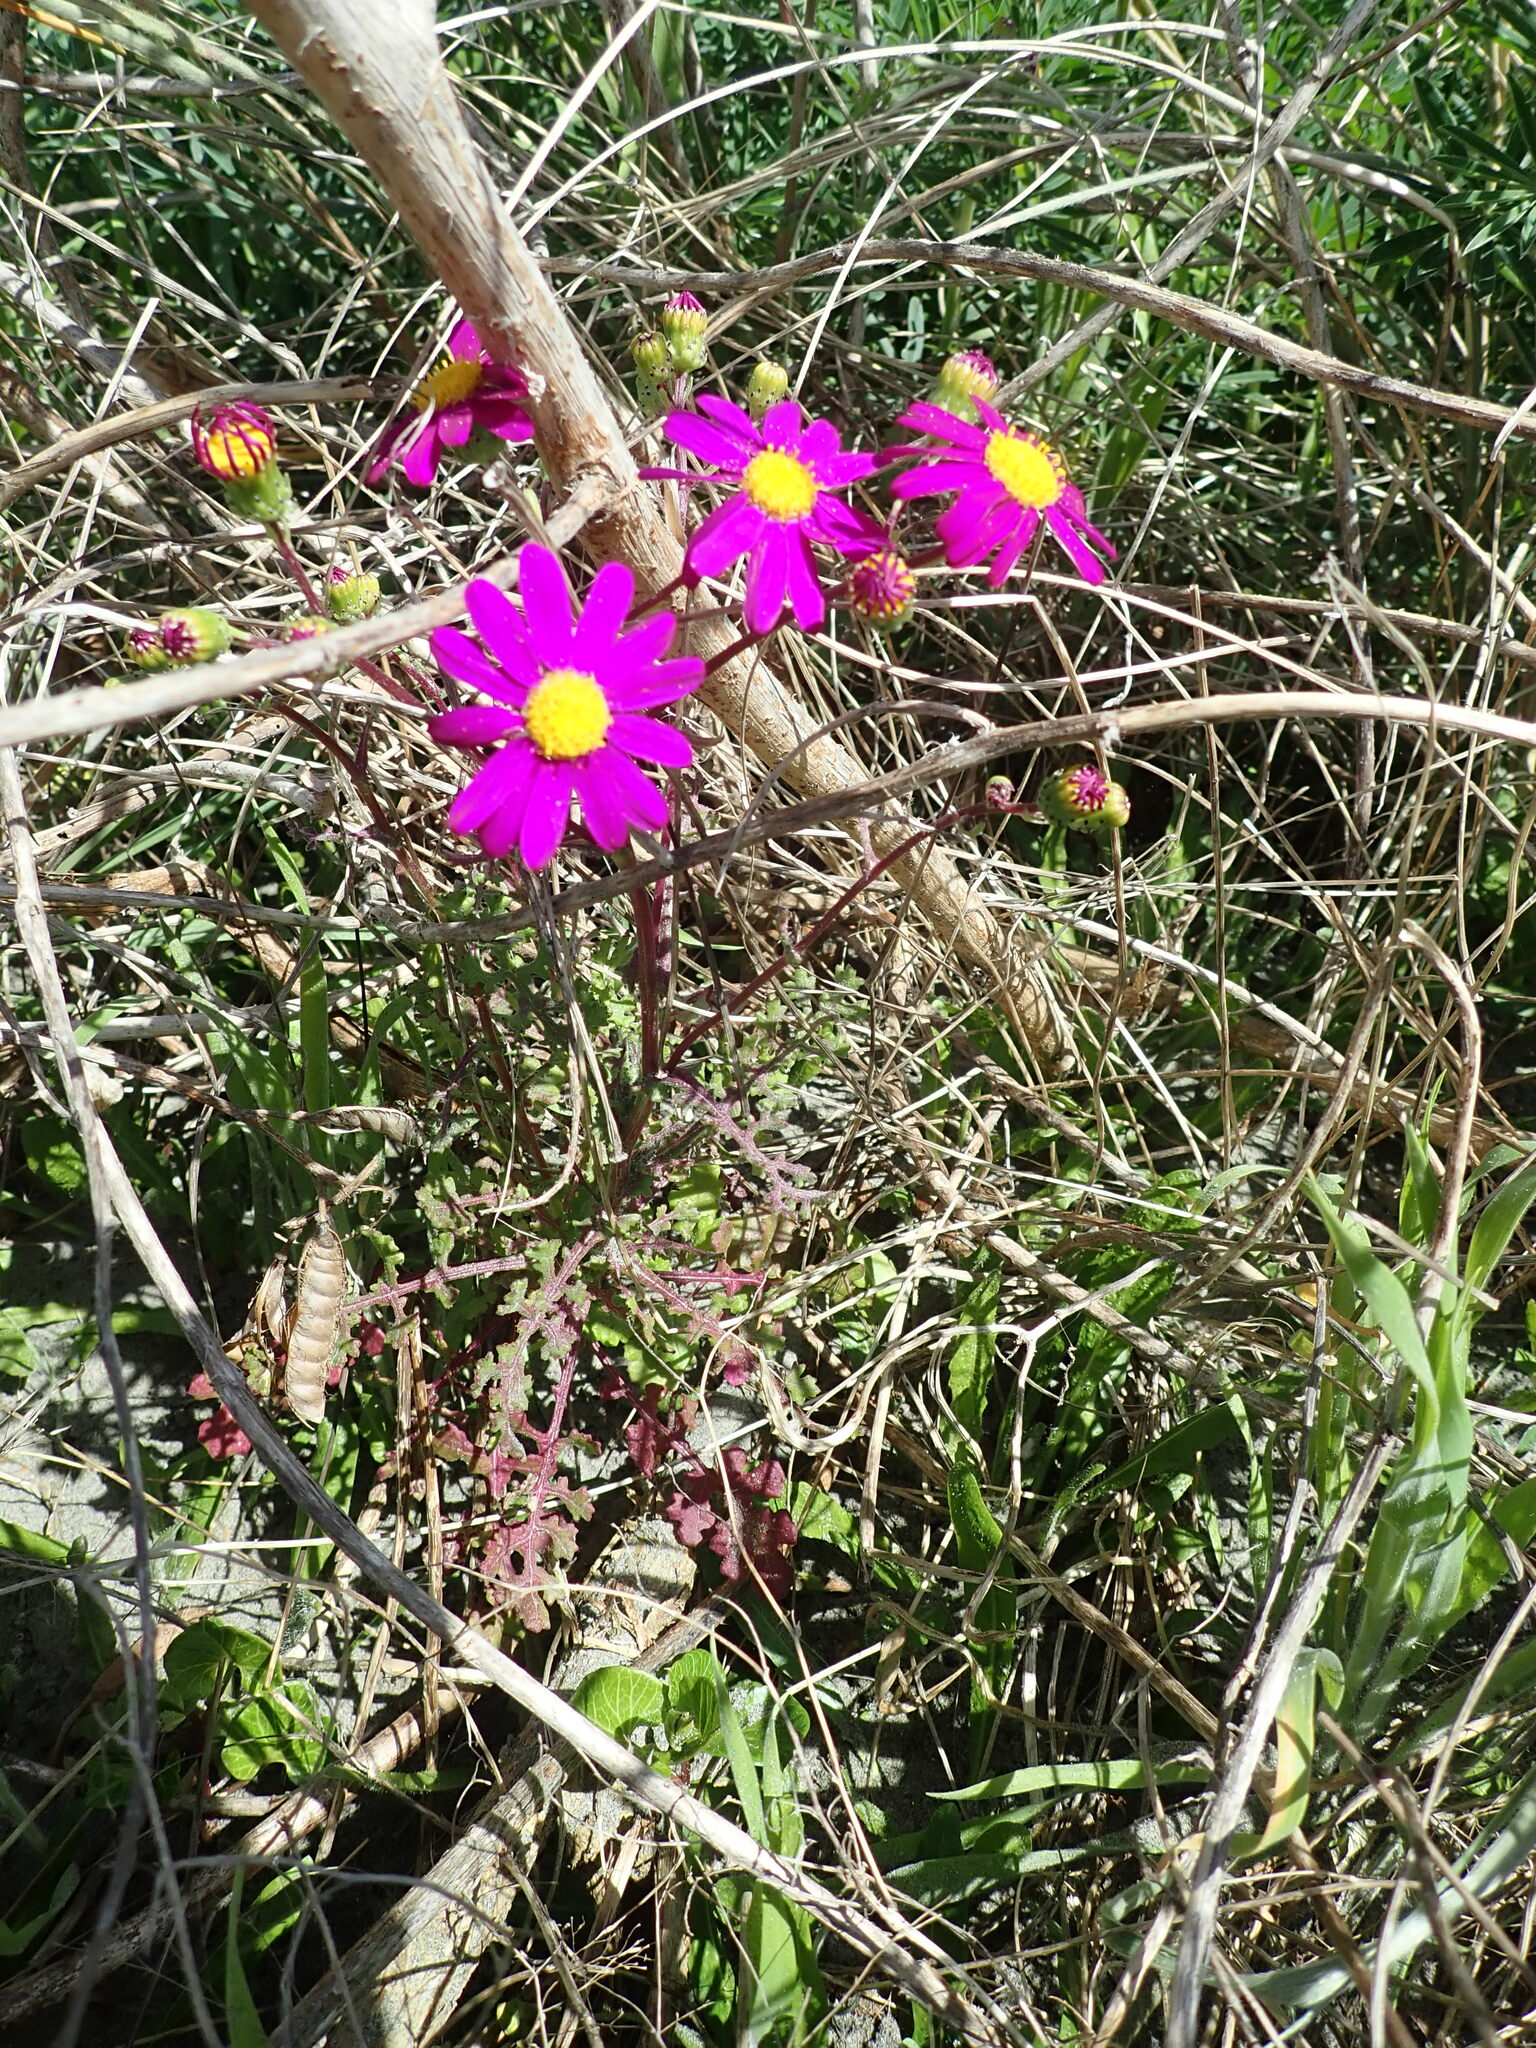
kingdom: Plantae
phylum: Tracheophyta
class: Magnoliopsida
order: Asterales
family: Asteraceae
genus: Senecio
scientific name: Senecio elegans
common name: Purple groundsel
